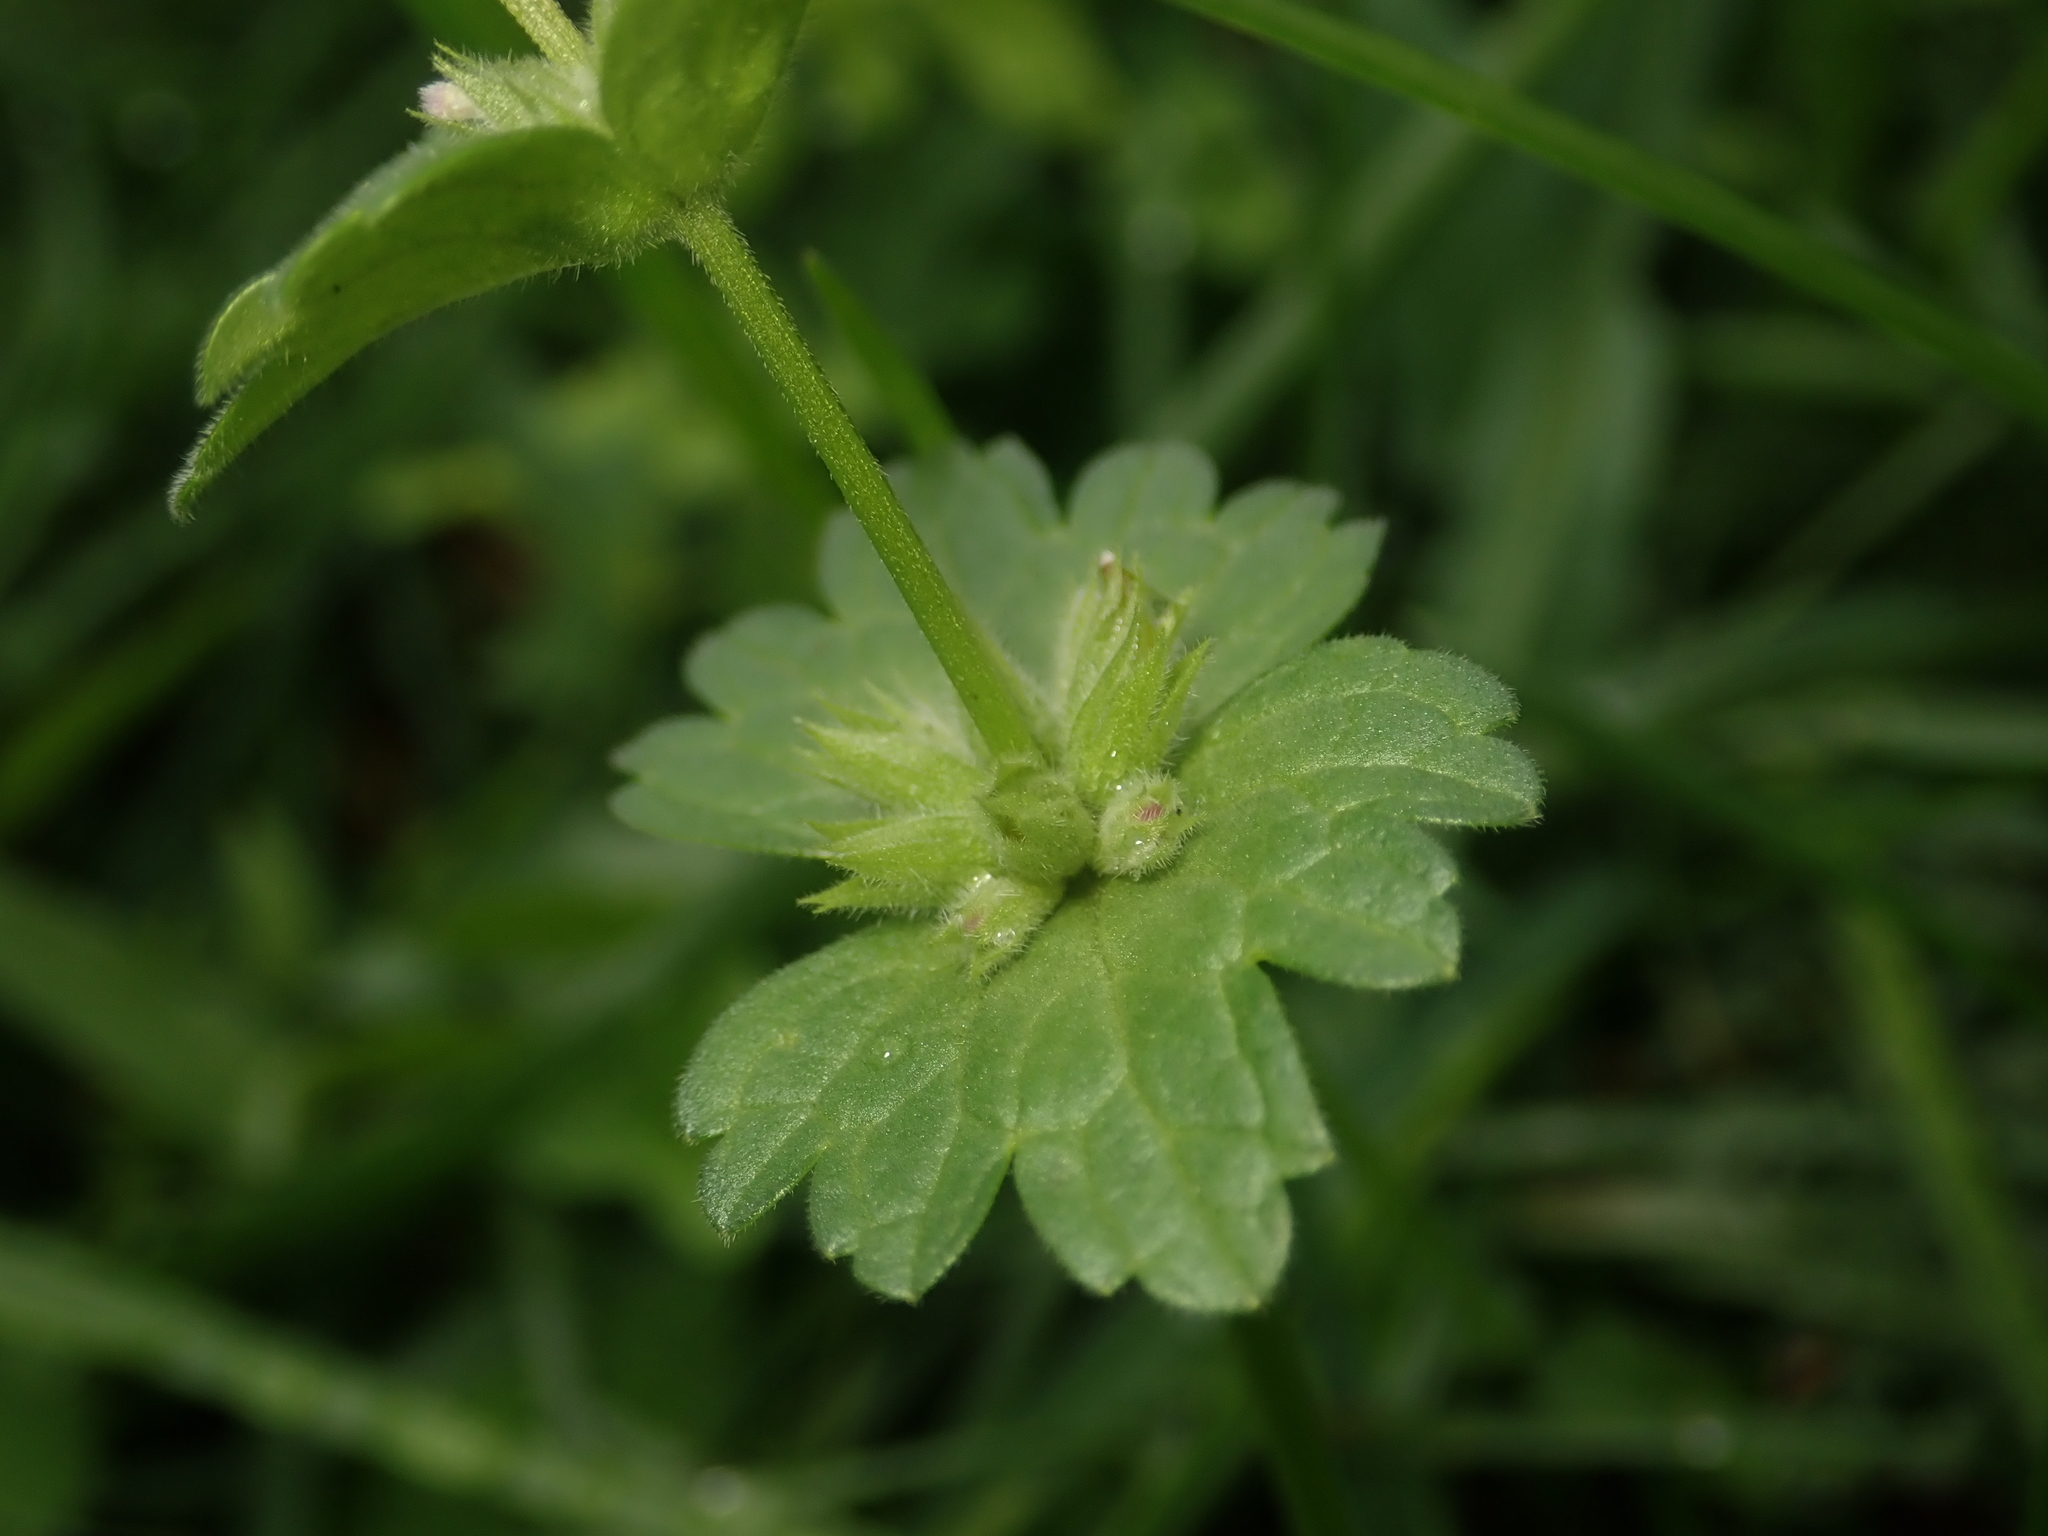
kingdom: Plantae
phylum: Tracheophyta
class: Magnoliopsida
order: Lamiales
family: Lamiaceae
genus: Lamium
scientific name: Lamium amplexicaule
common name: Henbit dead-nettle
